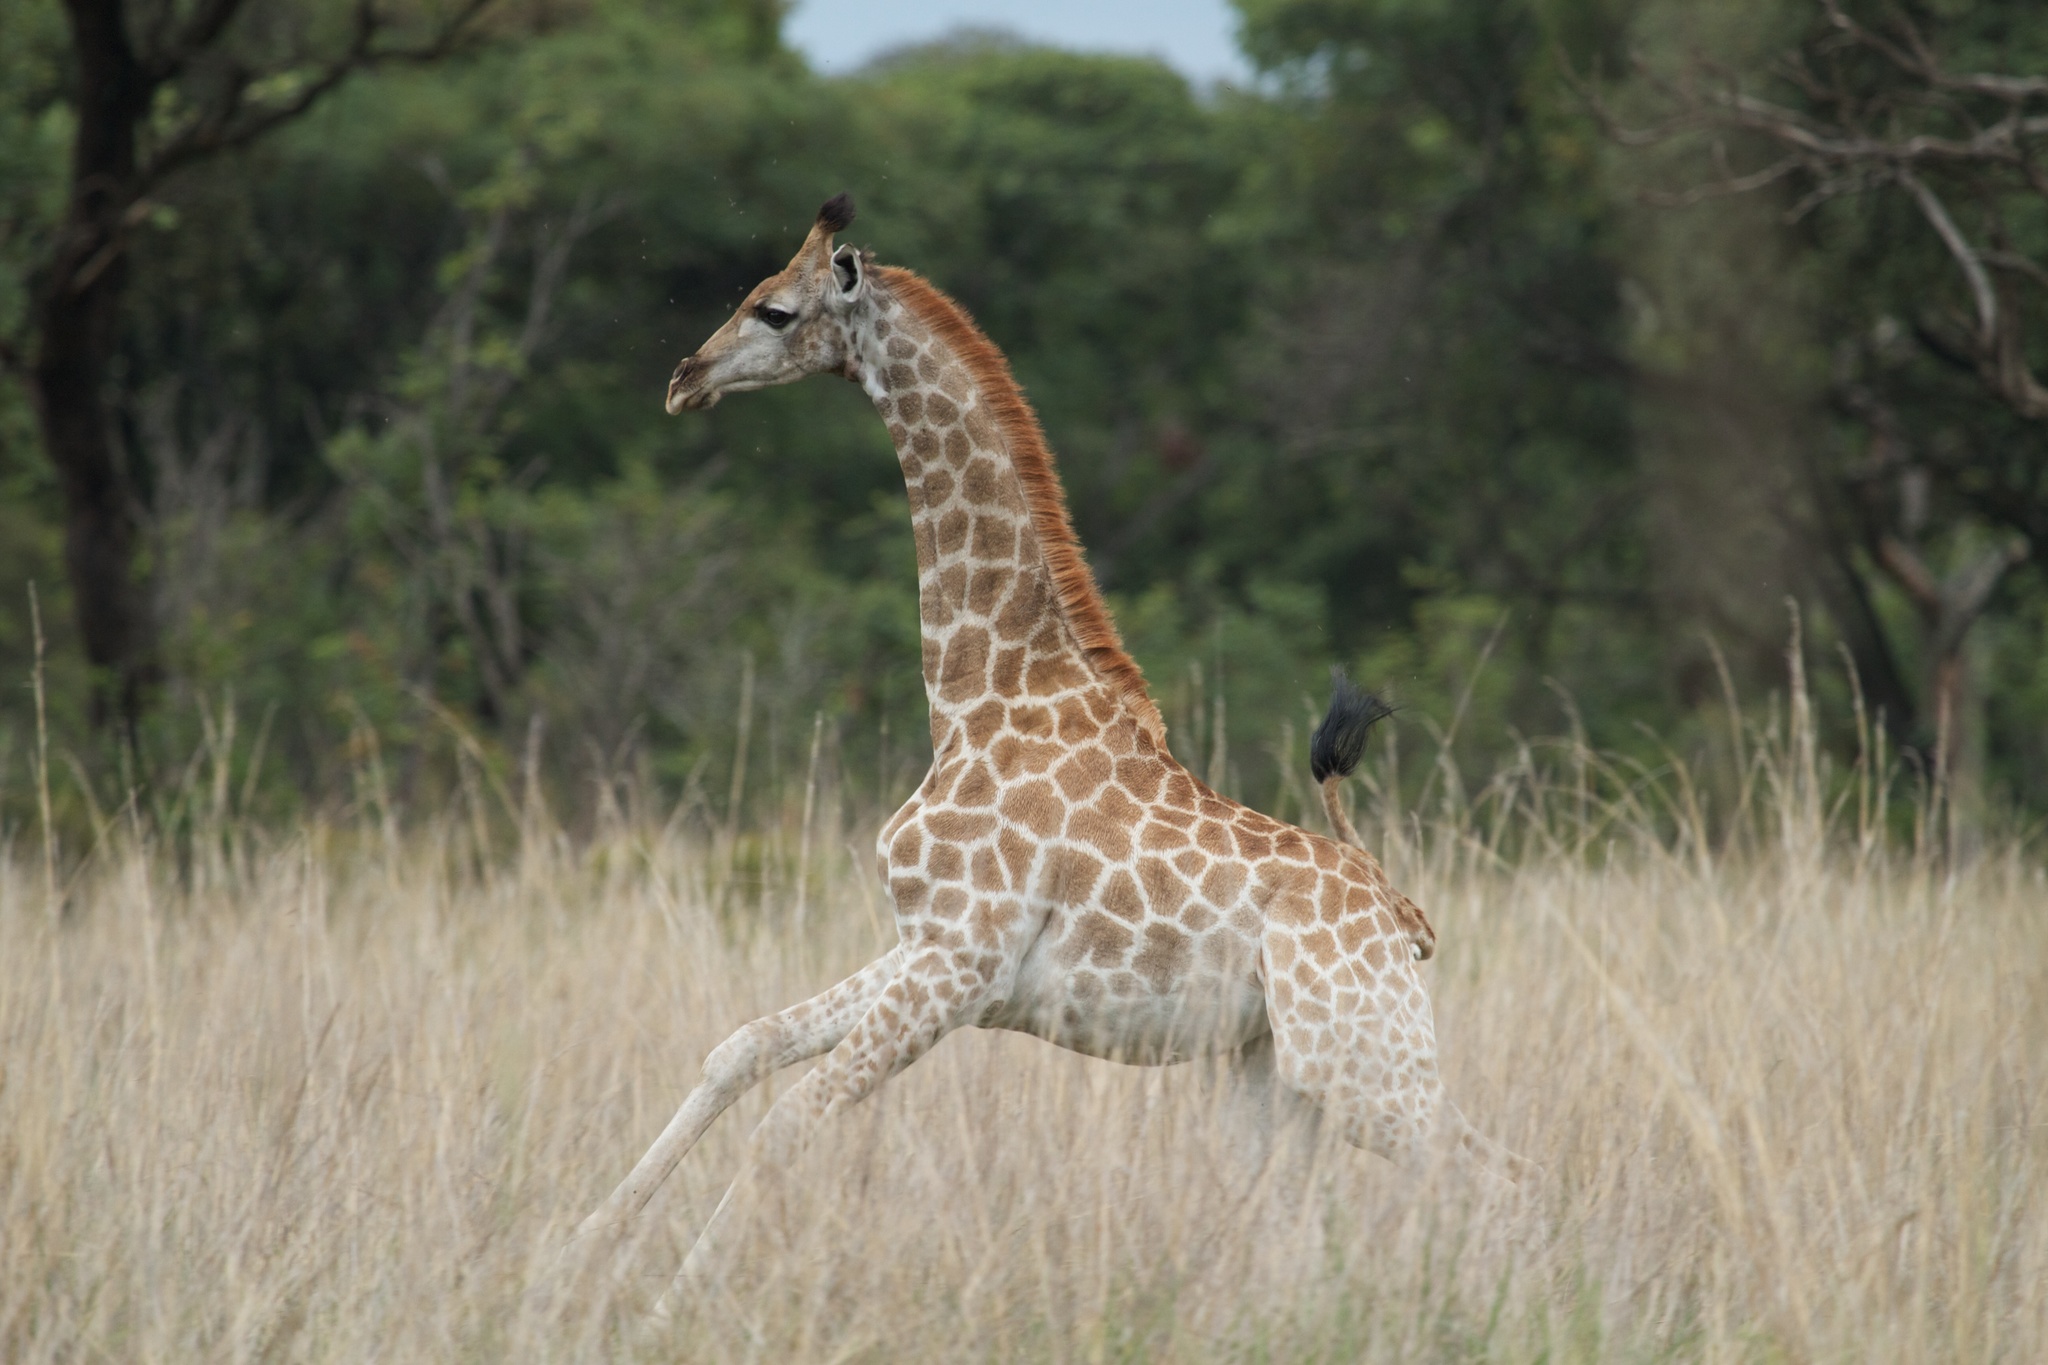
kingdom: Animalia
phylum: Chordata
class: Mammalia
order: Artiodactyla
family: Giraffidae
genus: Giraffa
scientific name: Giraffa giraffa
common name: Southern giraffe
